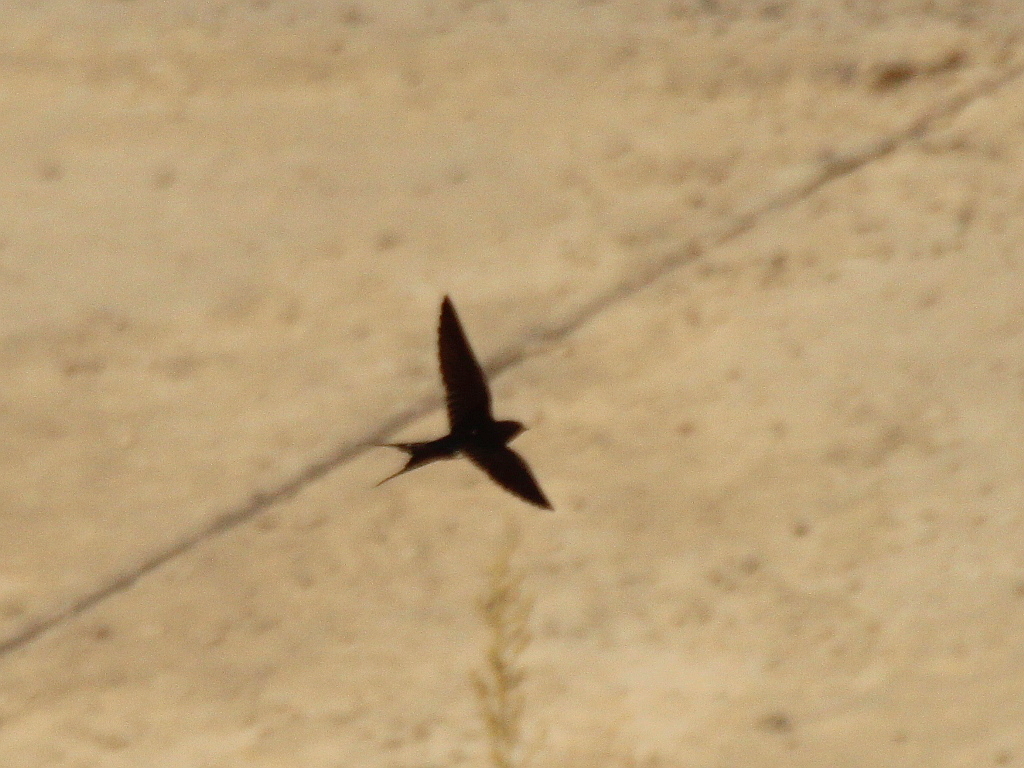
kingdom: Animalia
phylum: Chordata
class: Aves
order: Passeriformes
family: Hirundinidae
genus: Hirundo
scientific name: Hirundo rustica
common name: Barn swallow
